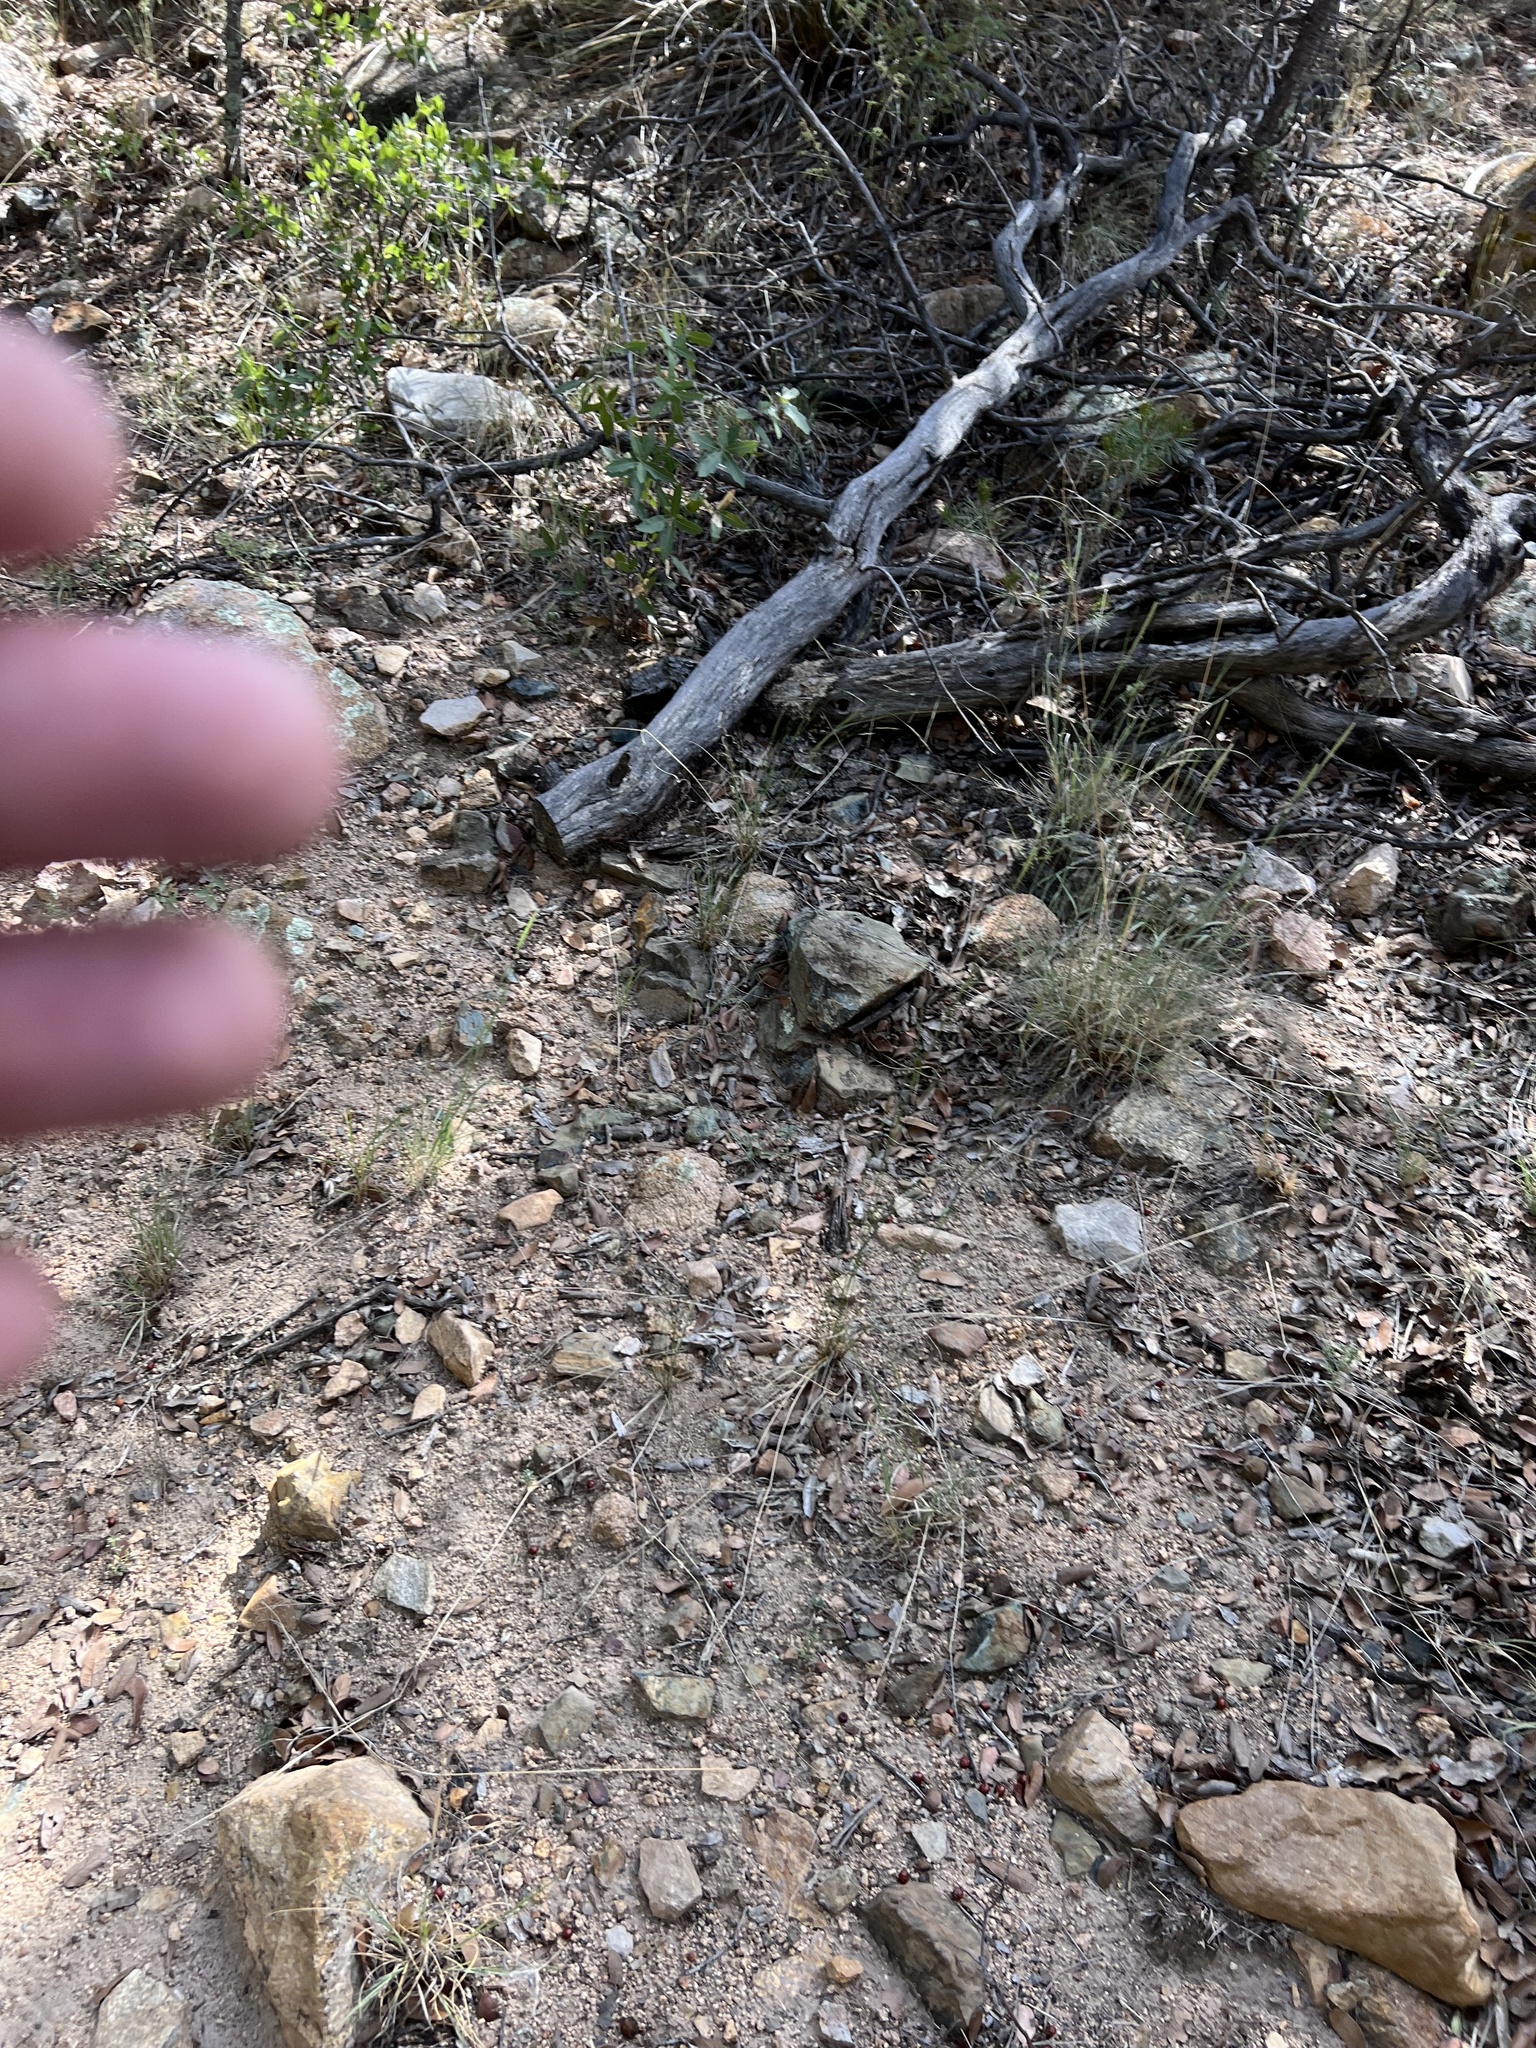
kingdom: Plantae
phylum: Tracheophyta
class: Magnoliopsida
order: Fagales
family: Fagaceae
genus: Quercus
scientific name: Quercus hypoleucoides
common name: Silverleaf oak
